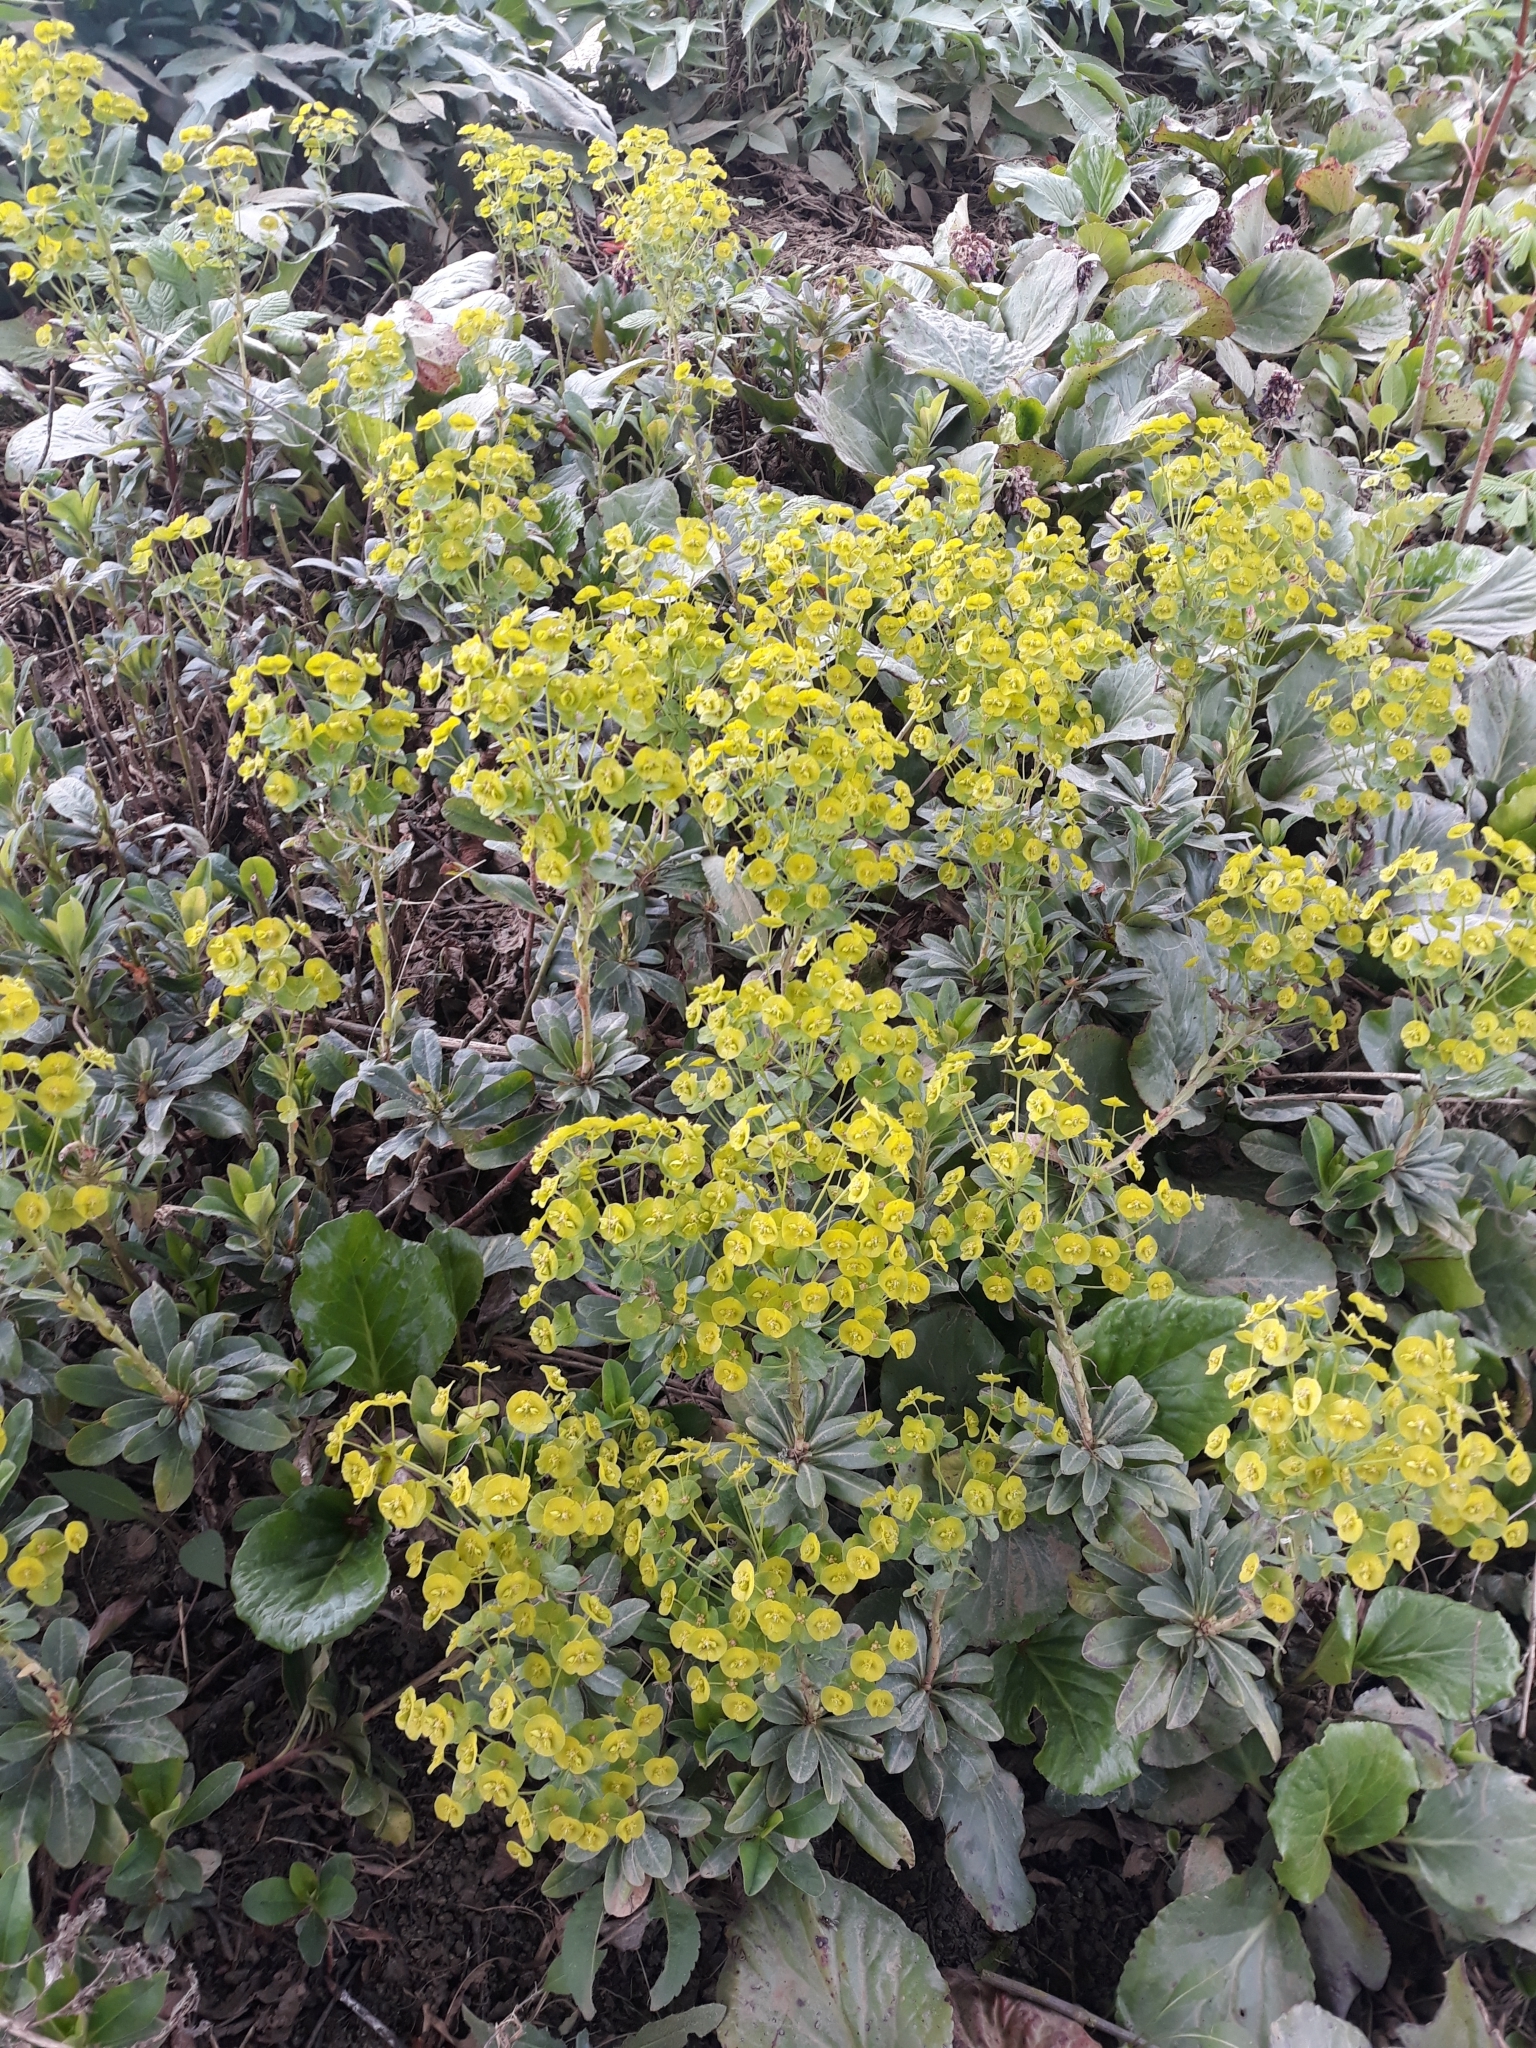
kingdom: Plantae
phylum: Tracheophyta
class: Magnoliopsida
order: Malpighiales
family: Euphorbiaceae
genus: Euphorbia
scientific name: Euphorbia amygdaloides
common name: Wood spurge
